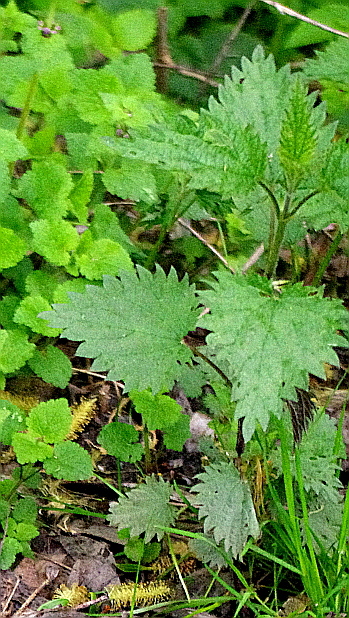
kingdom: Plantae
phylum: Tracheophyta
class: Magnoliopsida
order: Rosales
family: Urticaceae
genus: Urtica
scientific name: Urtica dioica
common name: Common nettle
